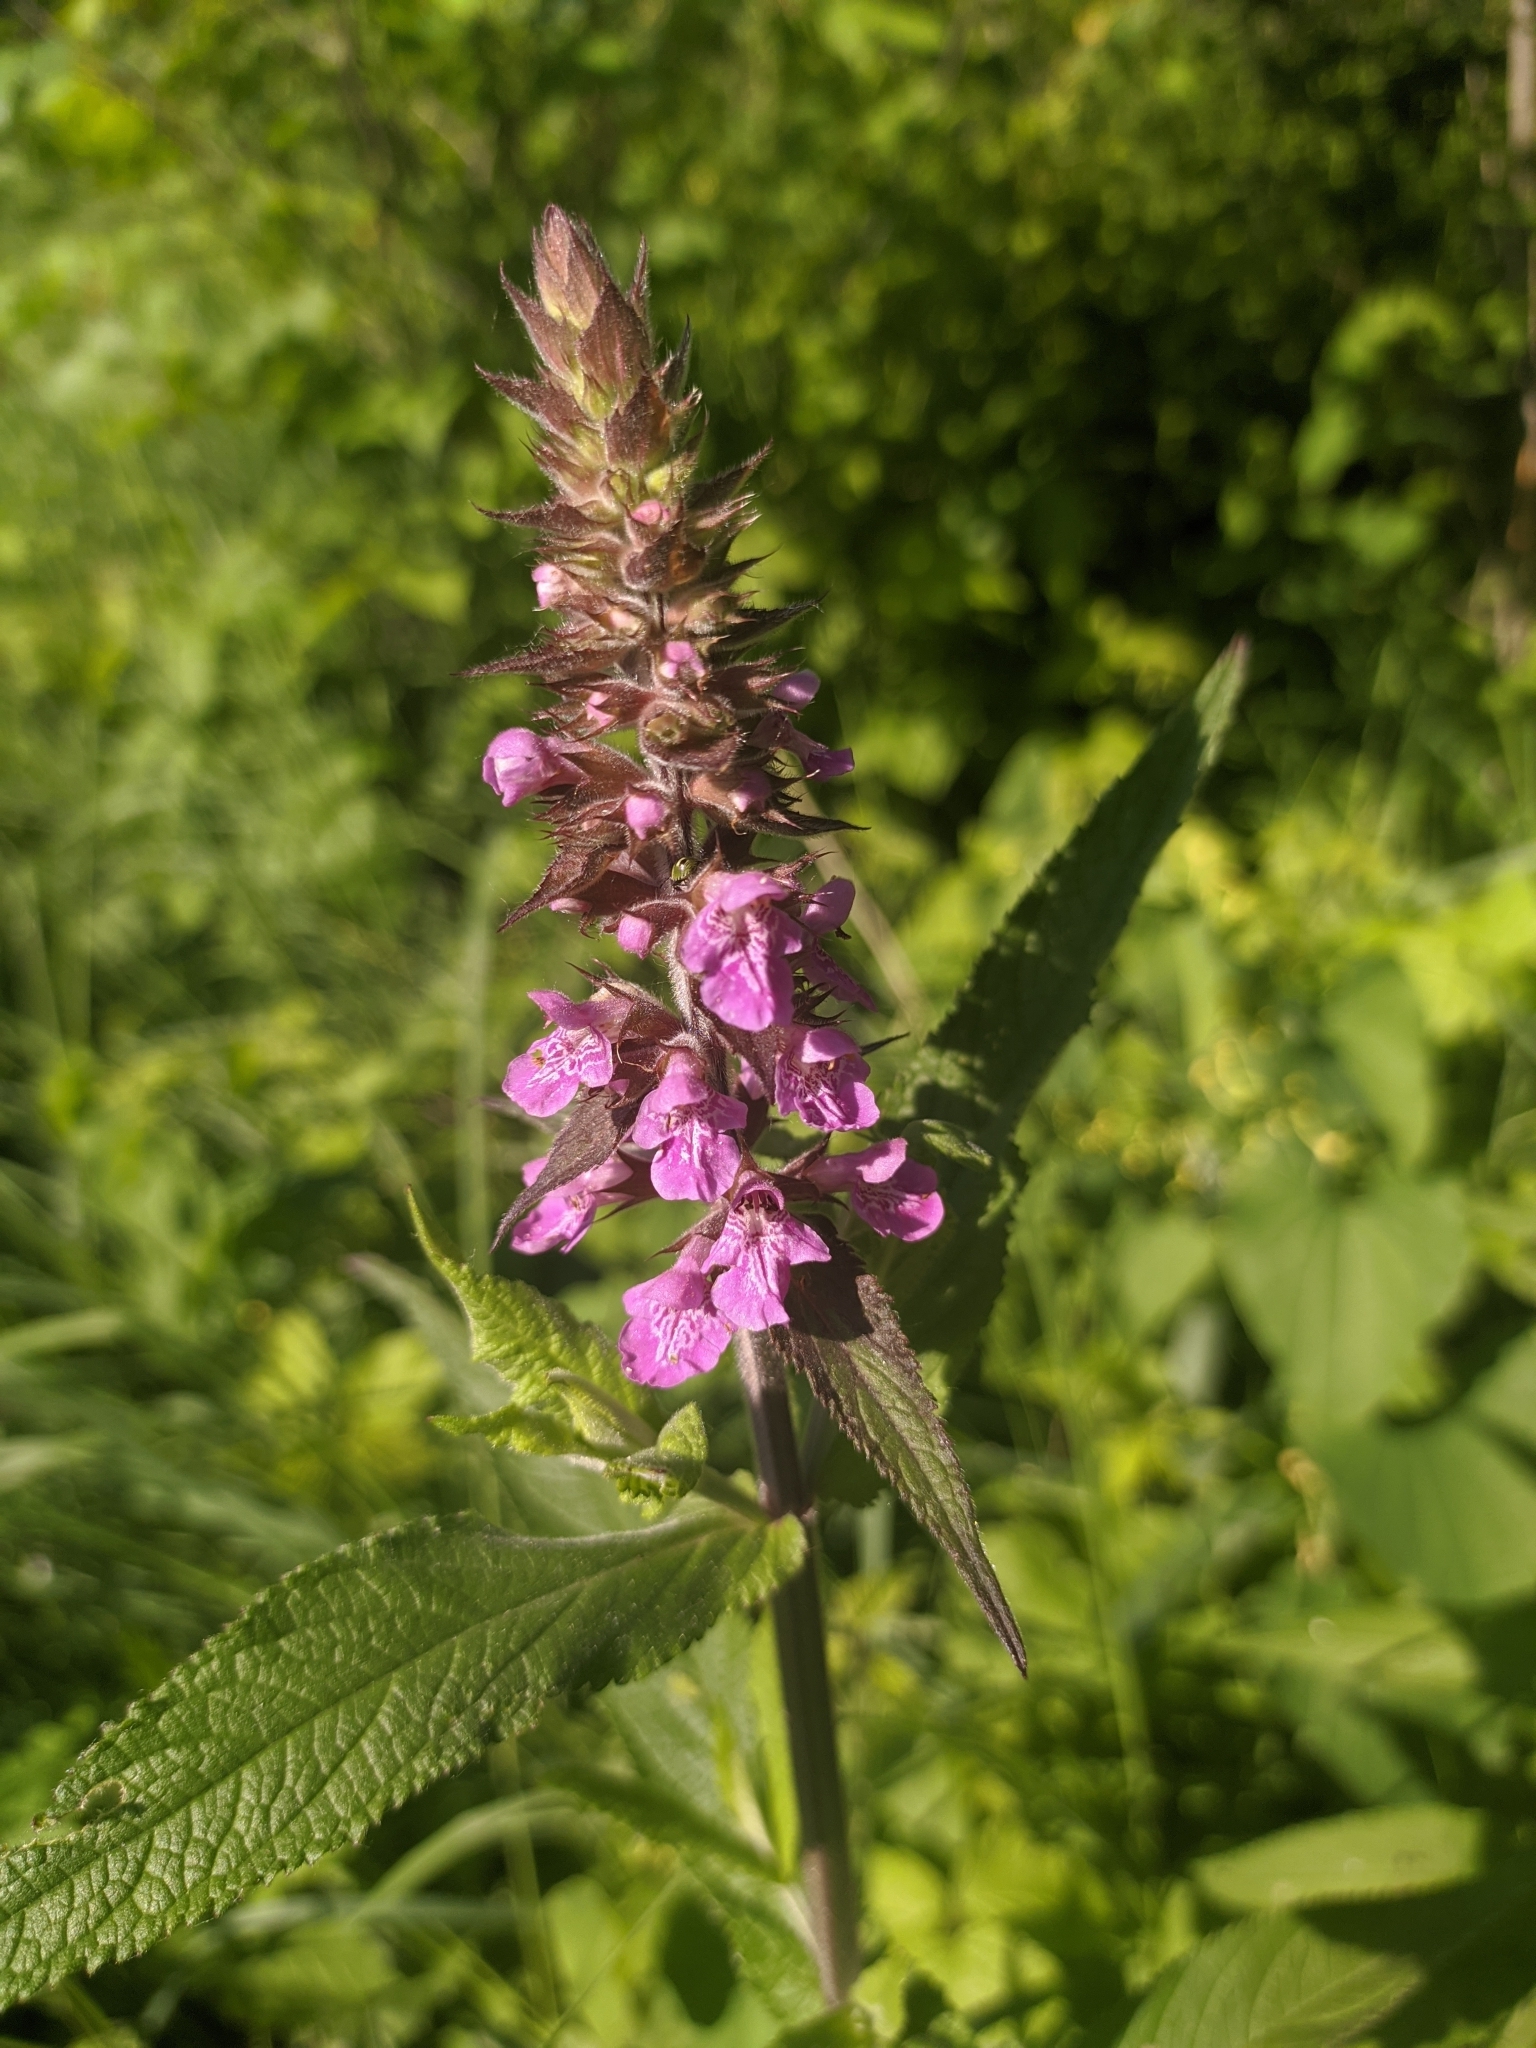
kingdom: Plantae
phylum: Tracheophyta
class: Magnoliopsida
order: Lamiales
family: Lamiaceae
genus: Stachys
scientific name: Stachys palustris
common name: Marsh woundwort
